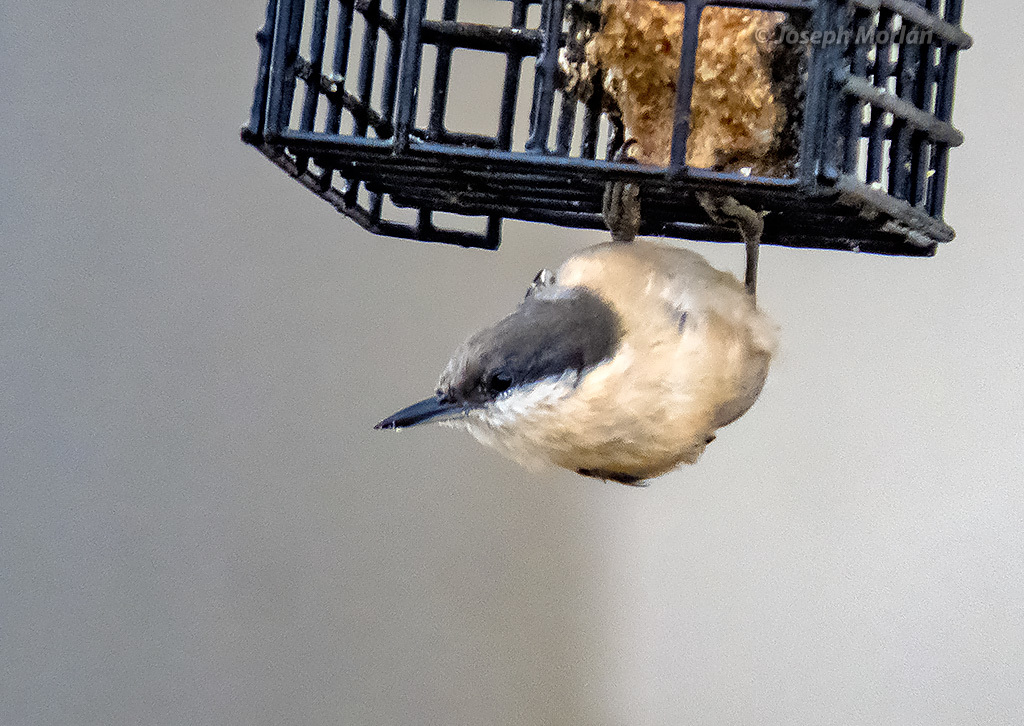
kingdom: Animalia
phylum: Chordata
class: Aves
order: Passeriformes
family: Sittidae
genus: Sitta
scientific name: Sitta pygmaea
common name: Pygmy nuthatch
